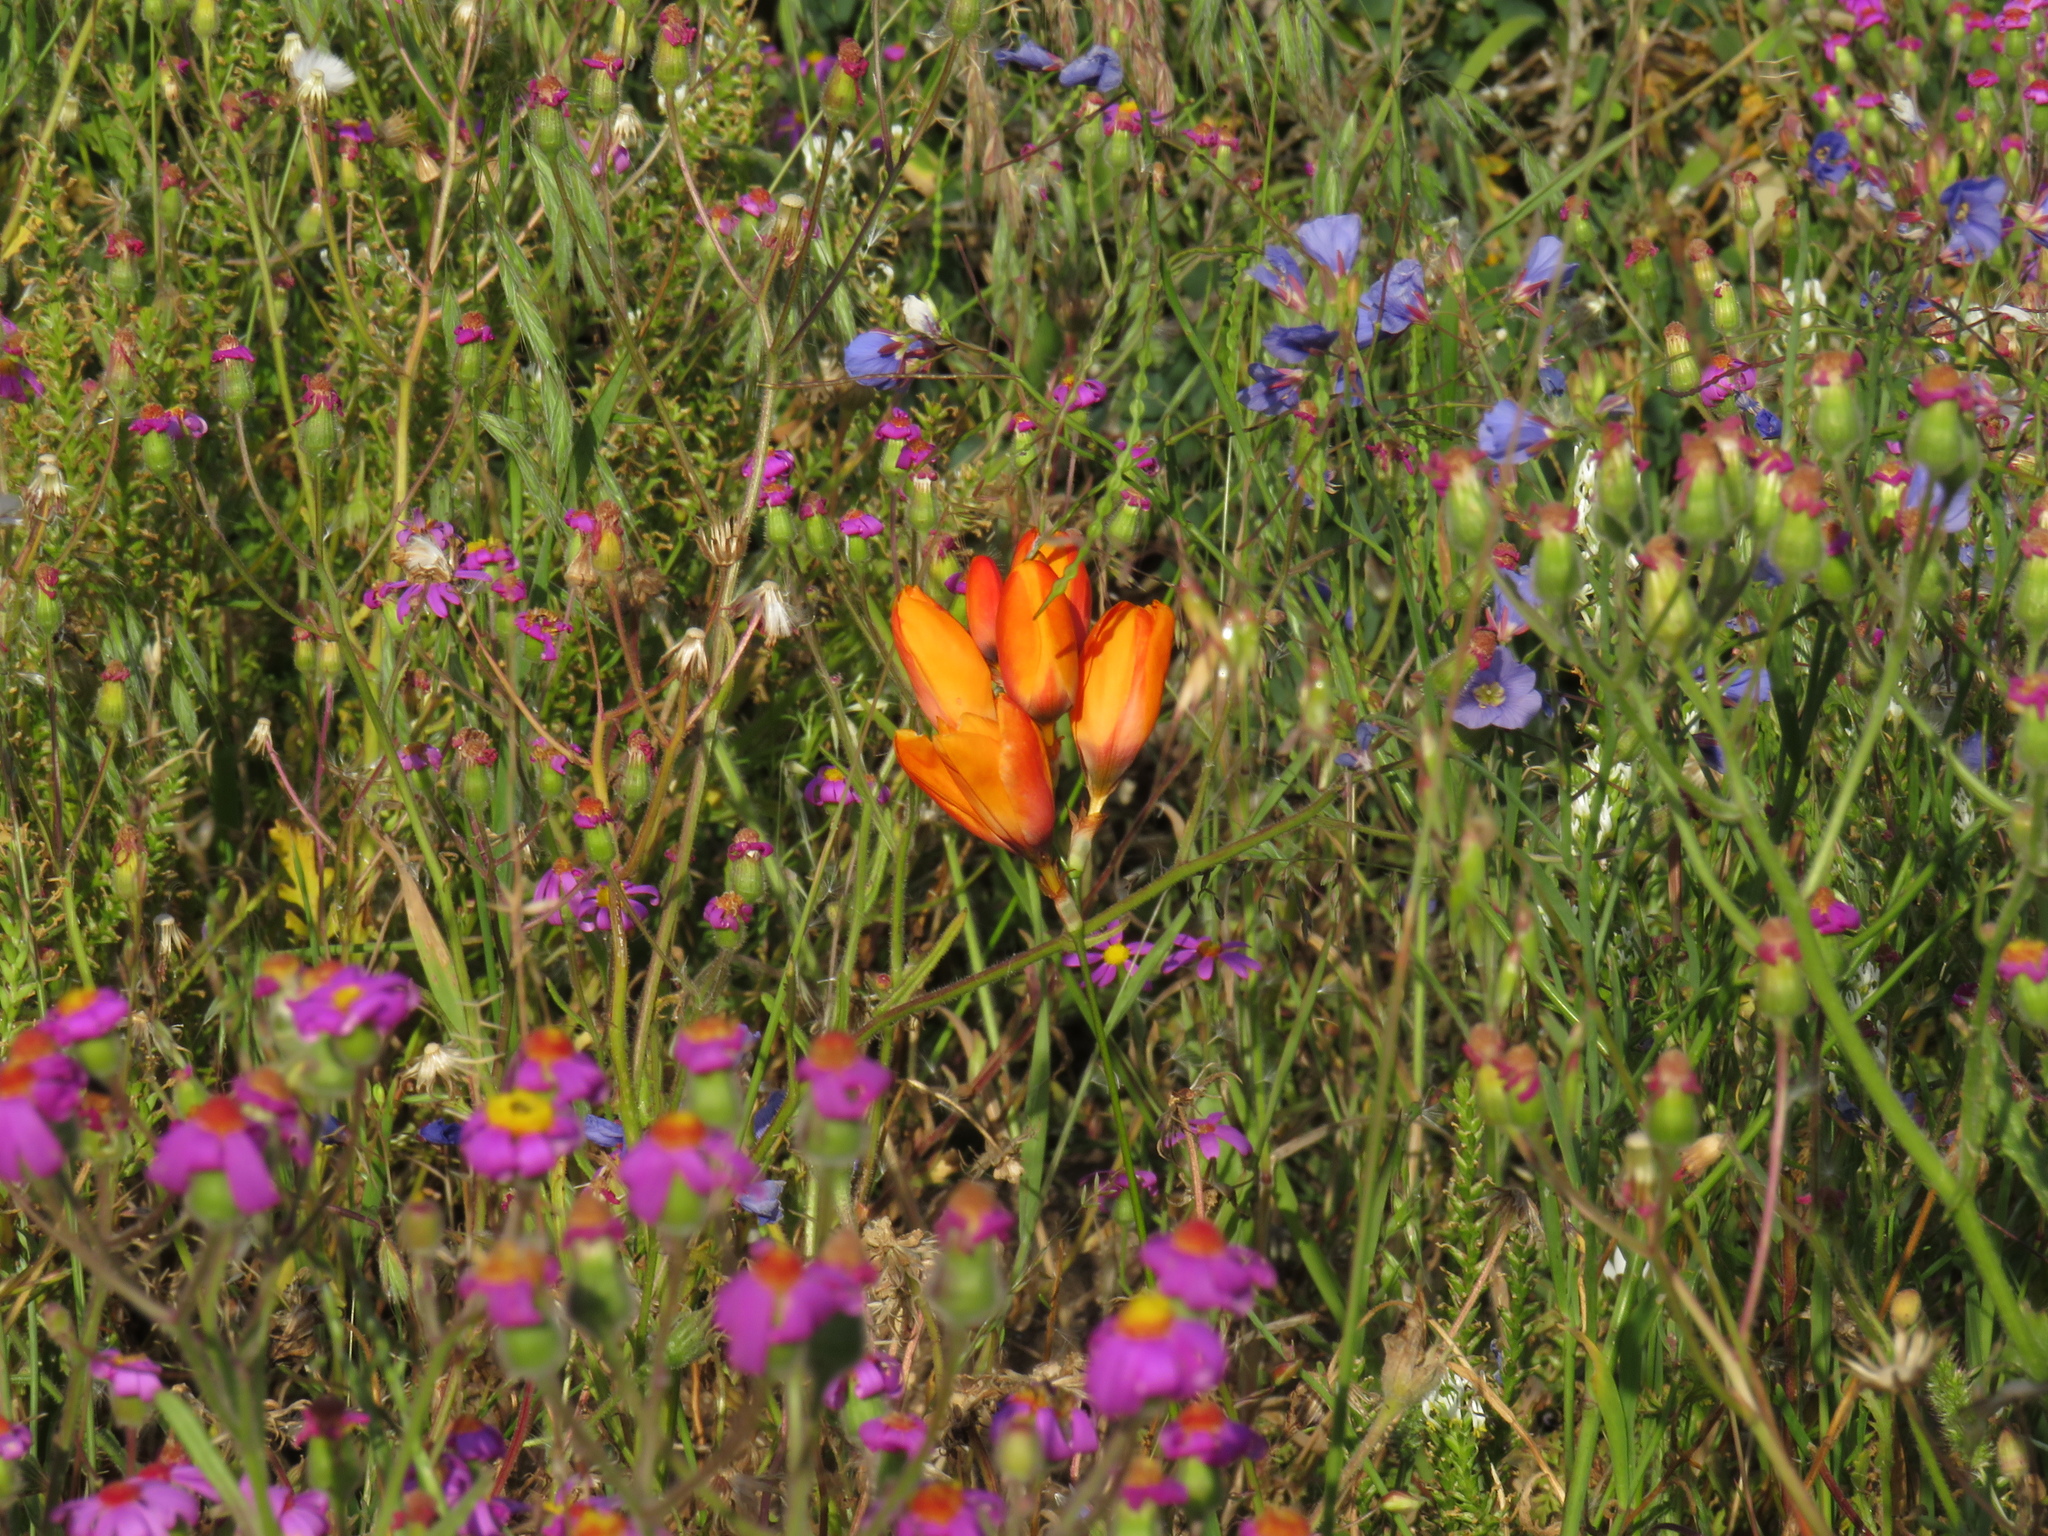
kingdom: Plantae
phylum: Tracheophyta
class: Liliopsida
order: Asparagales
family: Iridaceae
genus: Ixia
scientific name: Ixia calendulacea
